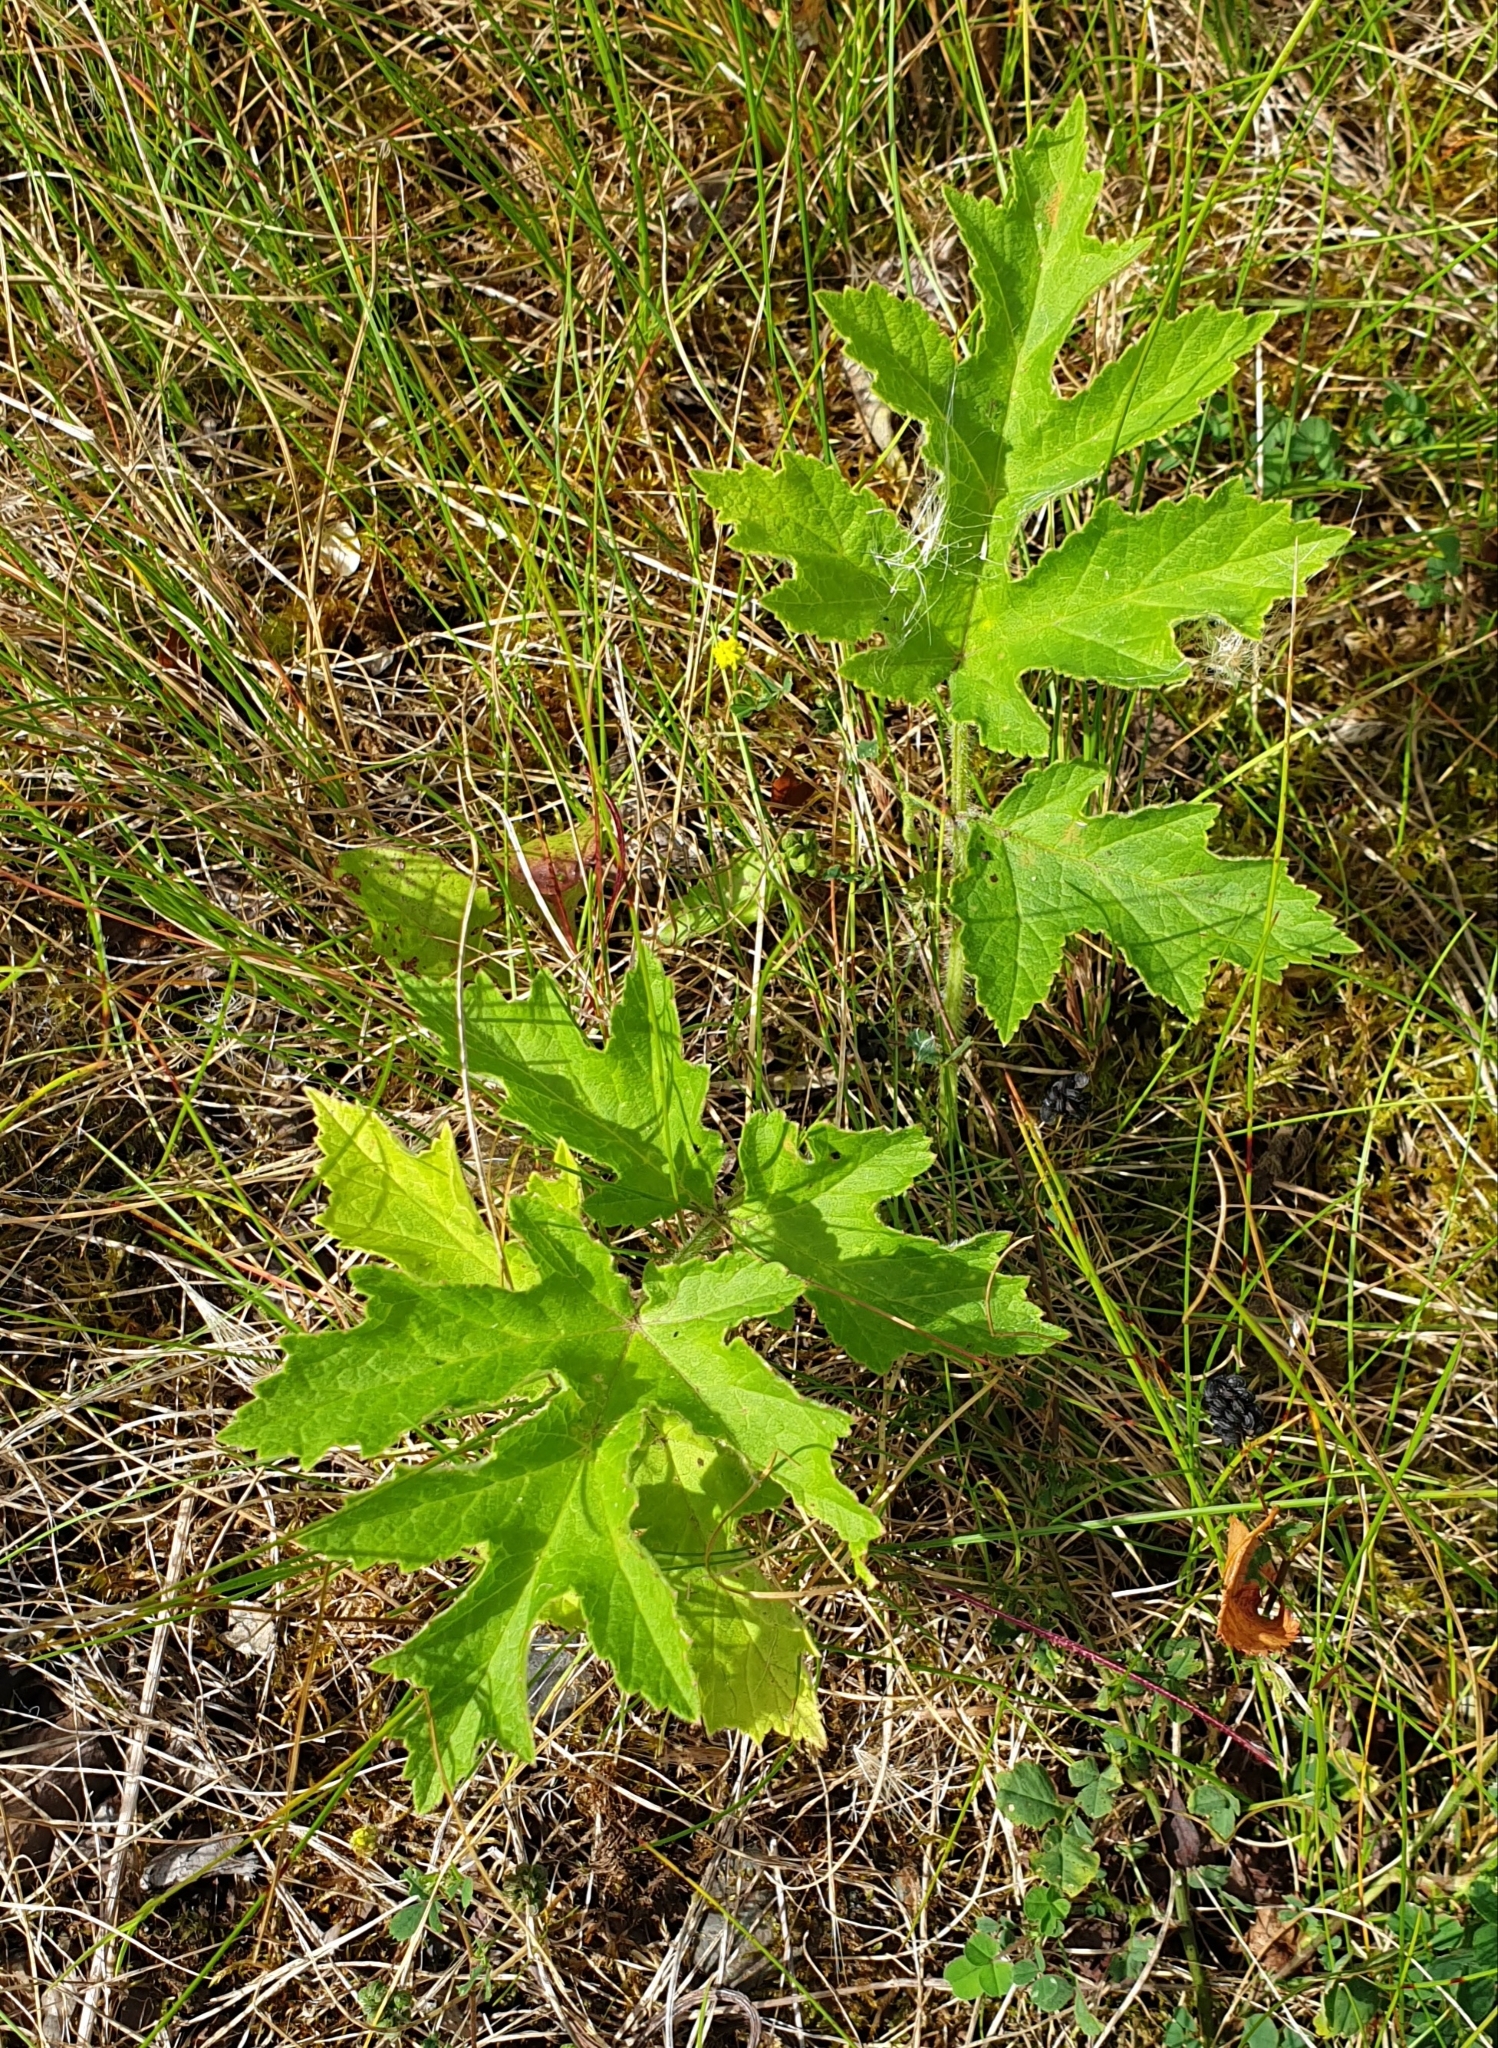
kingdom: Plantae
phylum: Tracheophyta
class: Magnoliopsida
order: Apiales
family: Apiaceae
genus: Heracleum
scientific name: Heracleum sphondylium
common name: Hogweed
